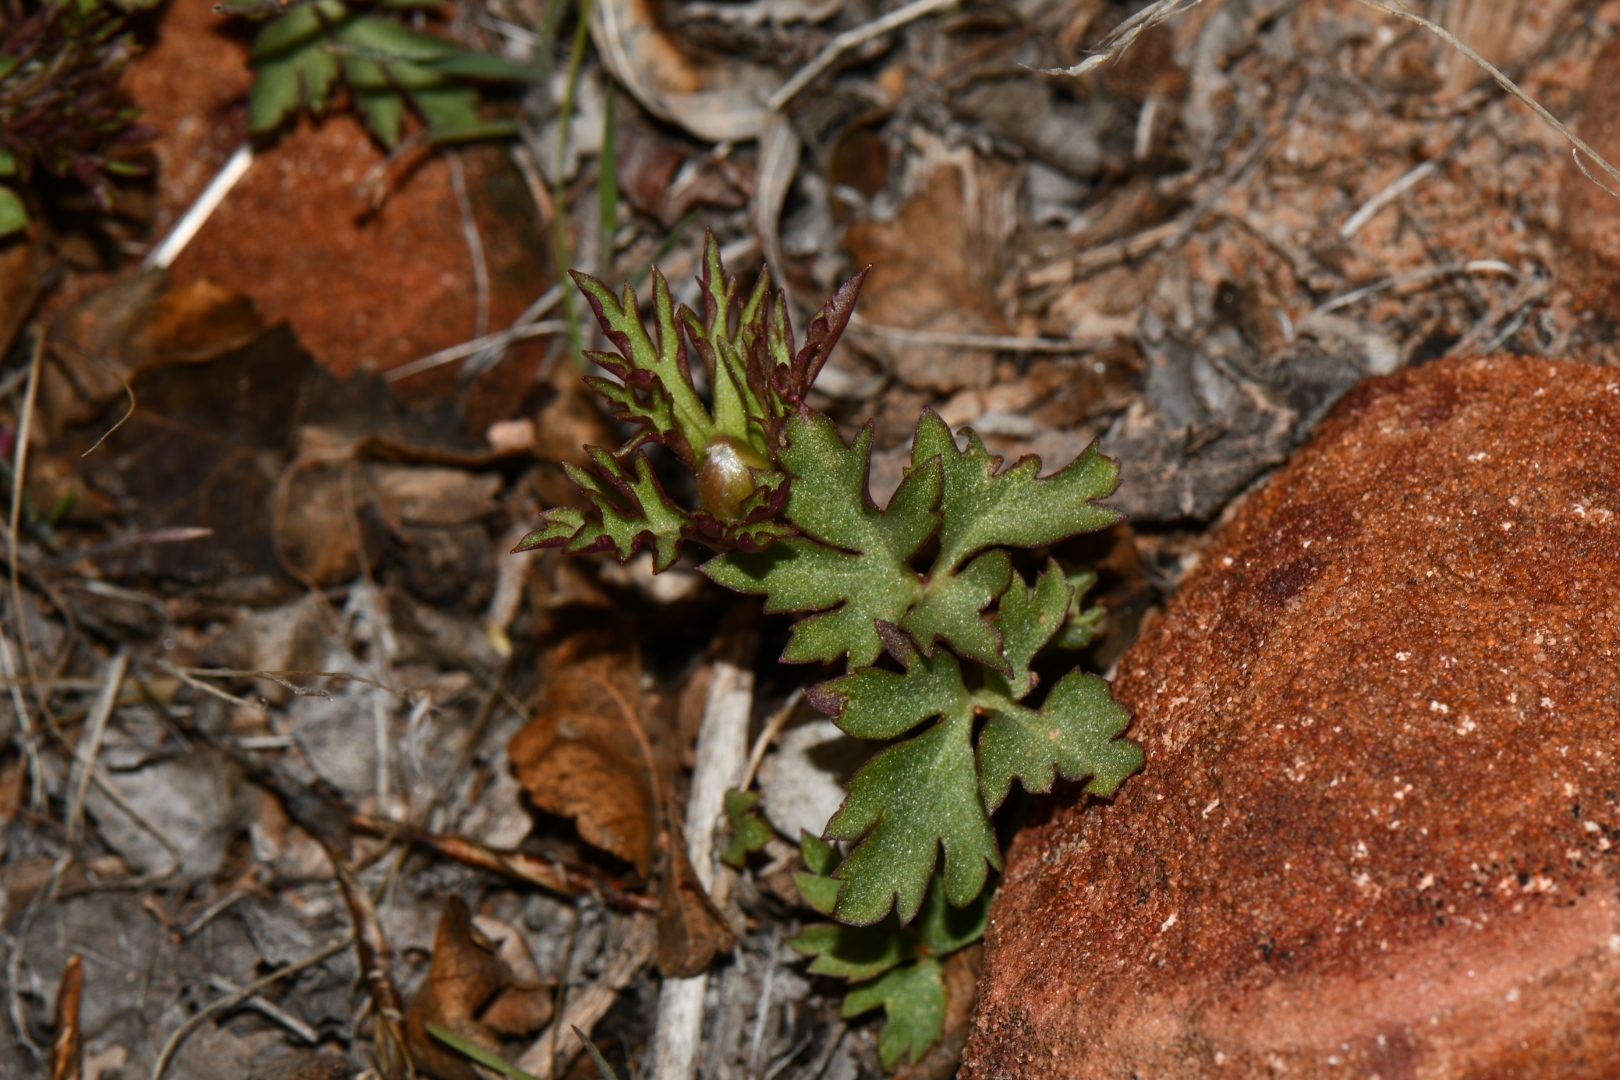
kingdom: Plantae
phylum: Tracheophyta
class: Magnoliopsida
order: Ranunculales
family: Ranunculaceae
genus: Anemone
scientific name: Anemone tuberosa
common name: Desert anemone
